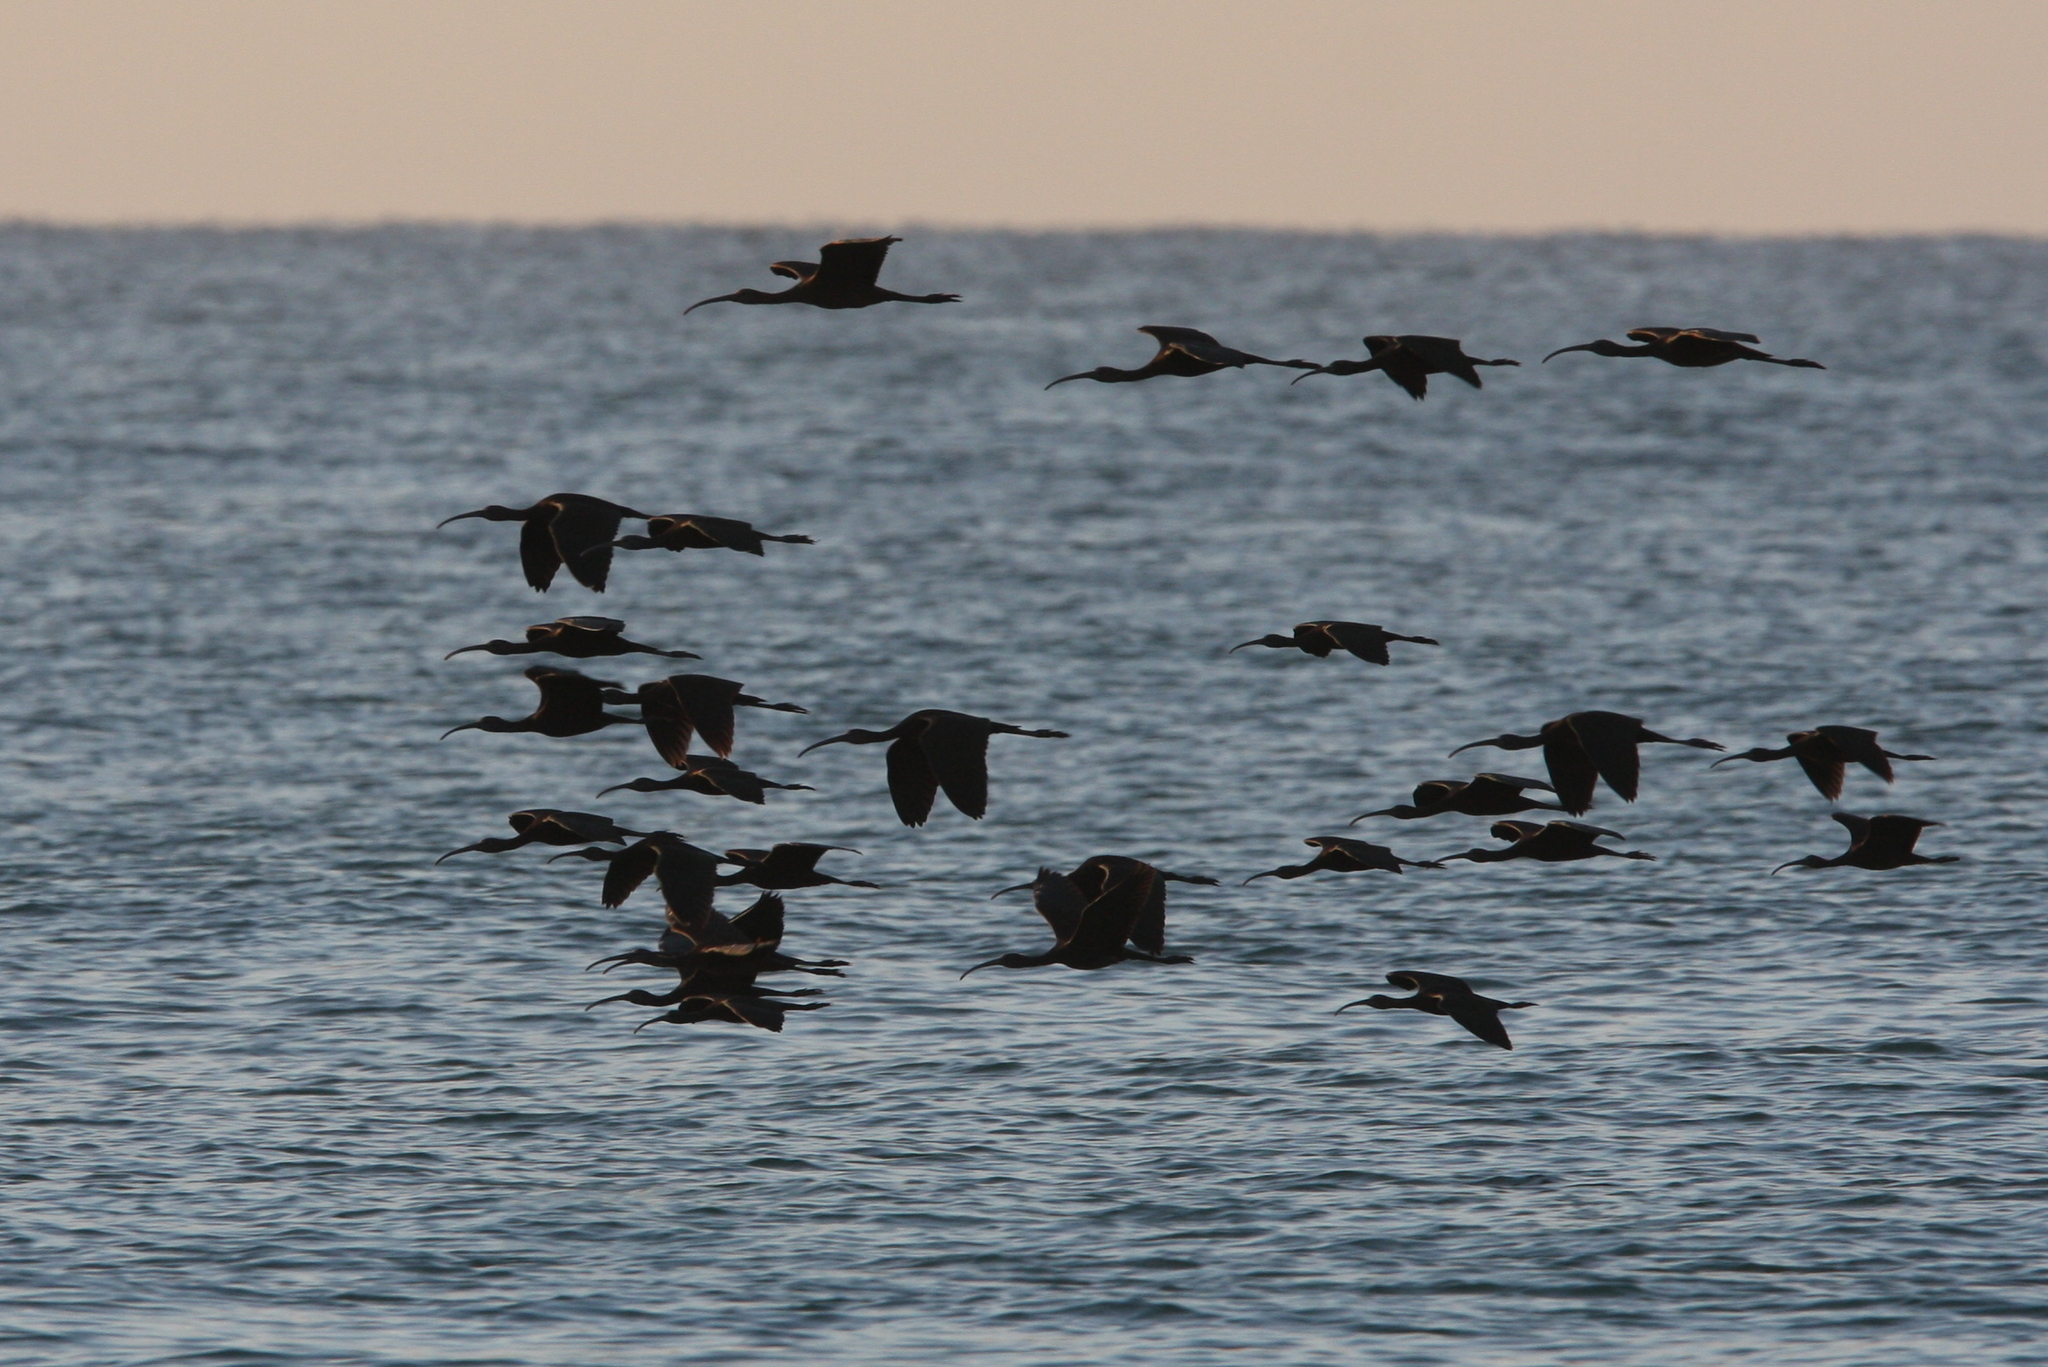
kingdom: Animalia
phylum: Chordata
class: Aves
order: Pelecaniformes
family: Threskiornithidae
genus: Plegadis
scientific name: Plegadis falcinellus
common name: Glossy ibis
